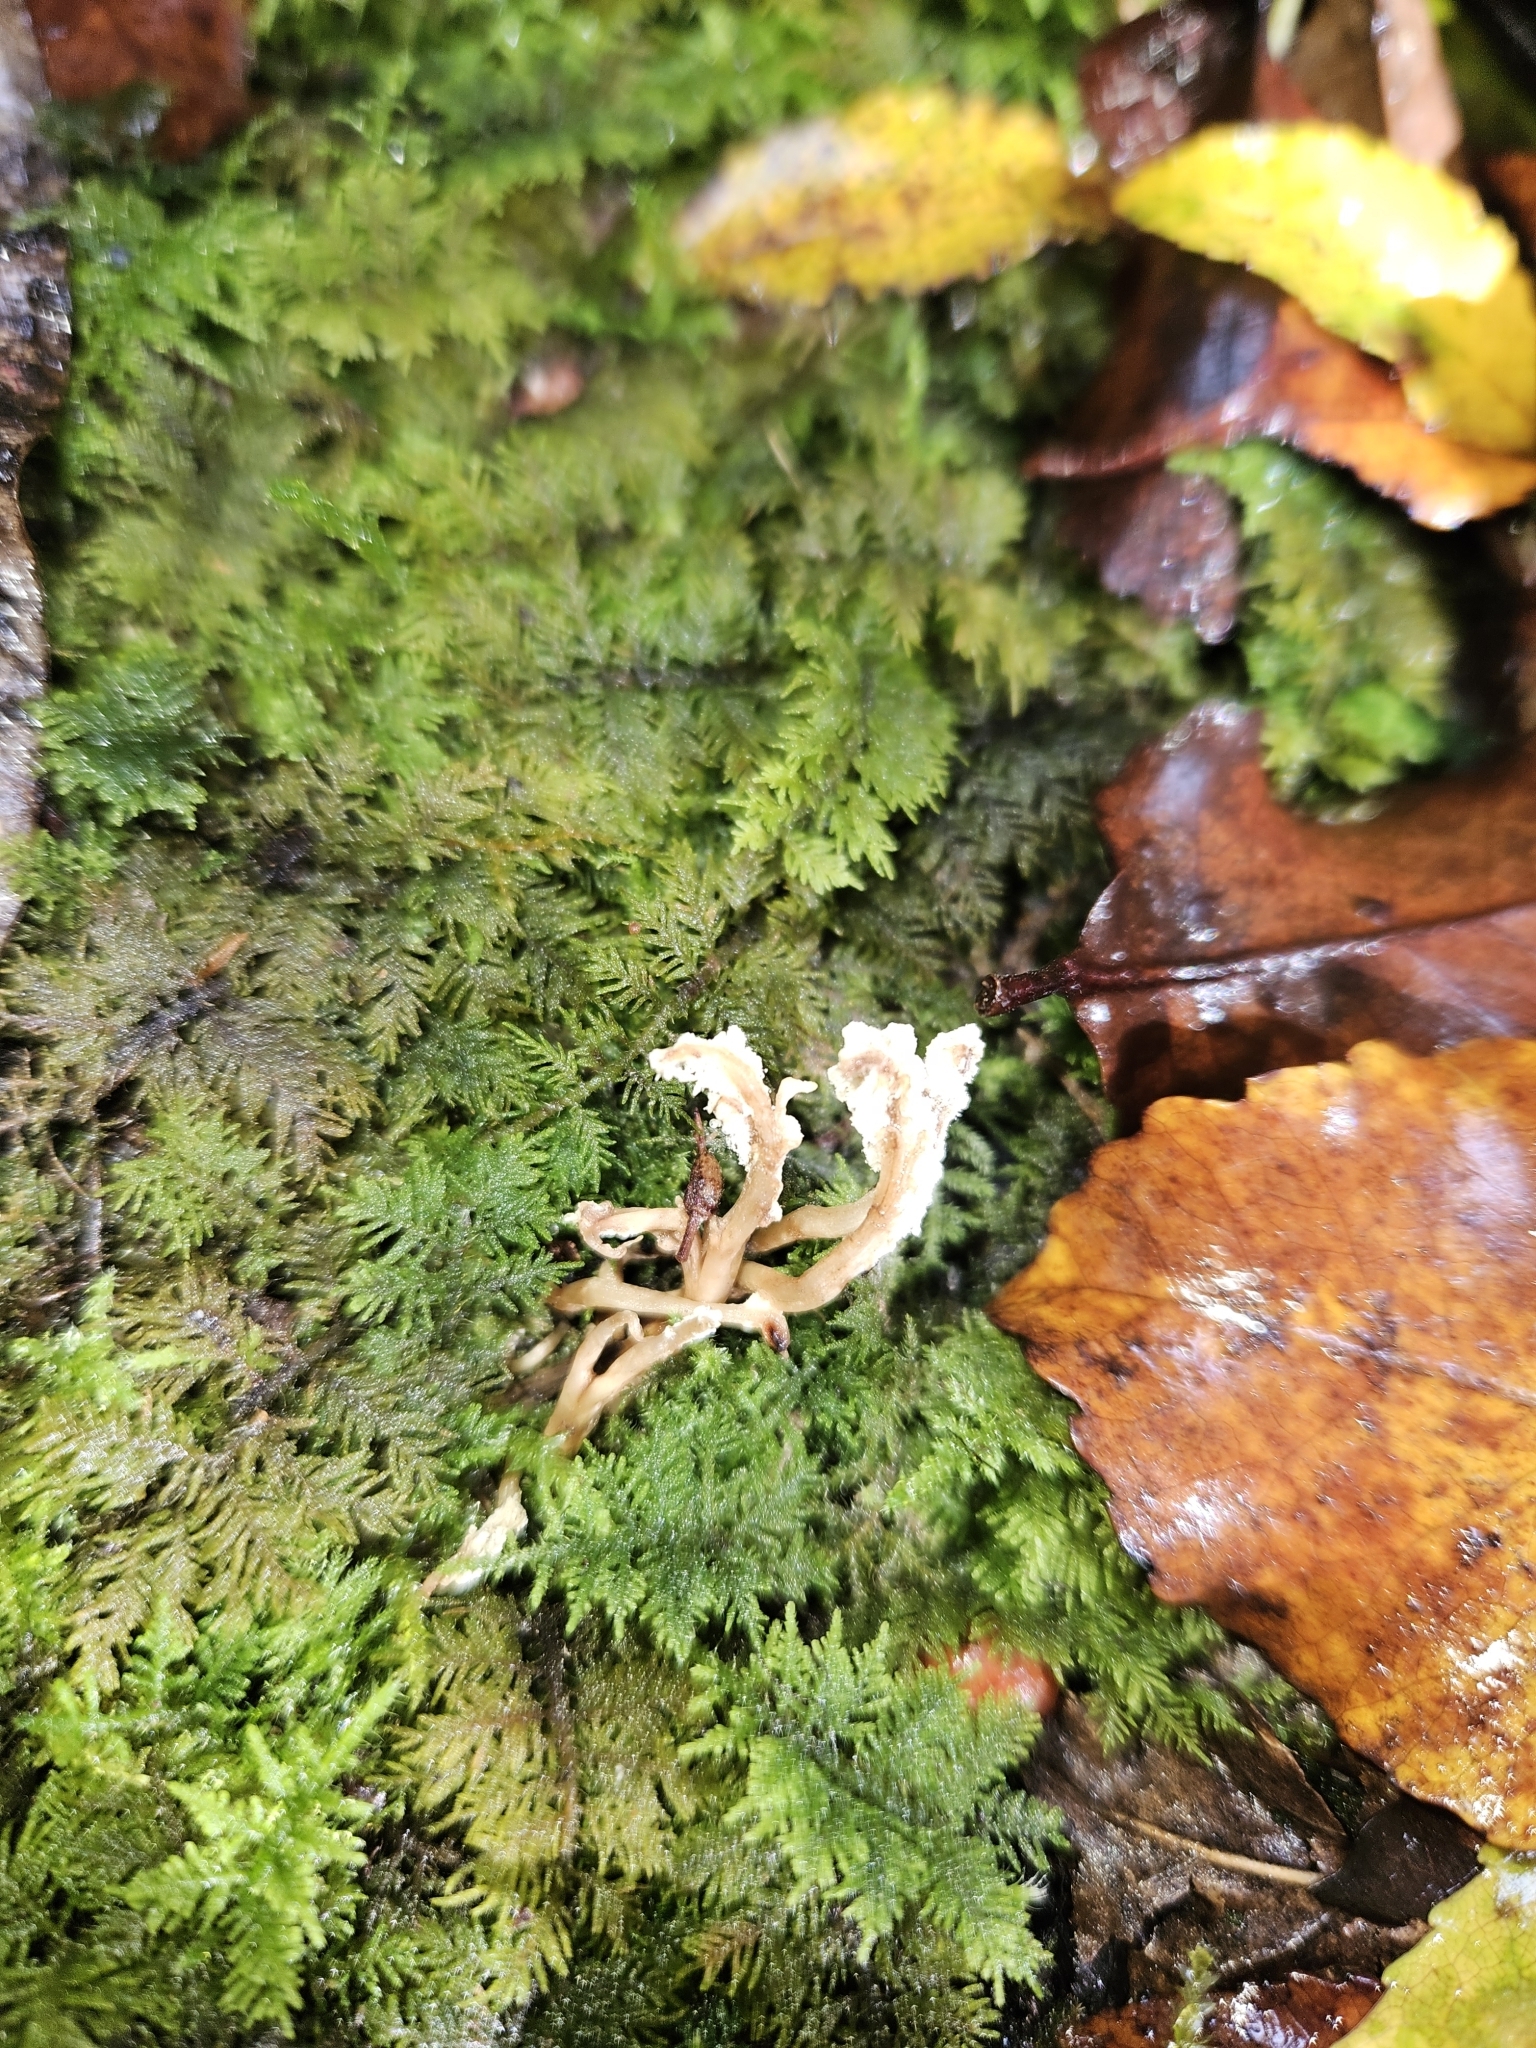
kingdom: Fungi
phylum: Ascomycota
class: Sordariomycetes
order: Hypocreales
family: Cordycipitaceae
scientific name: Cordycipitaceae
